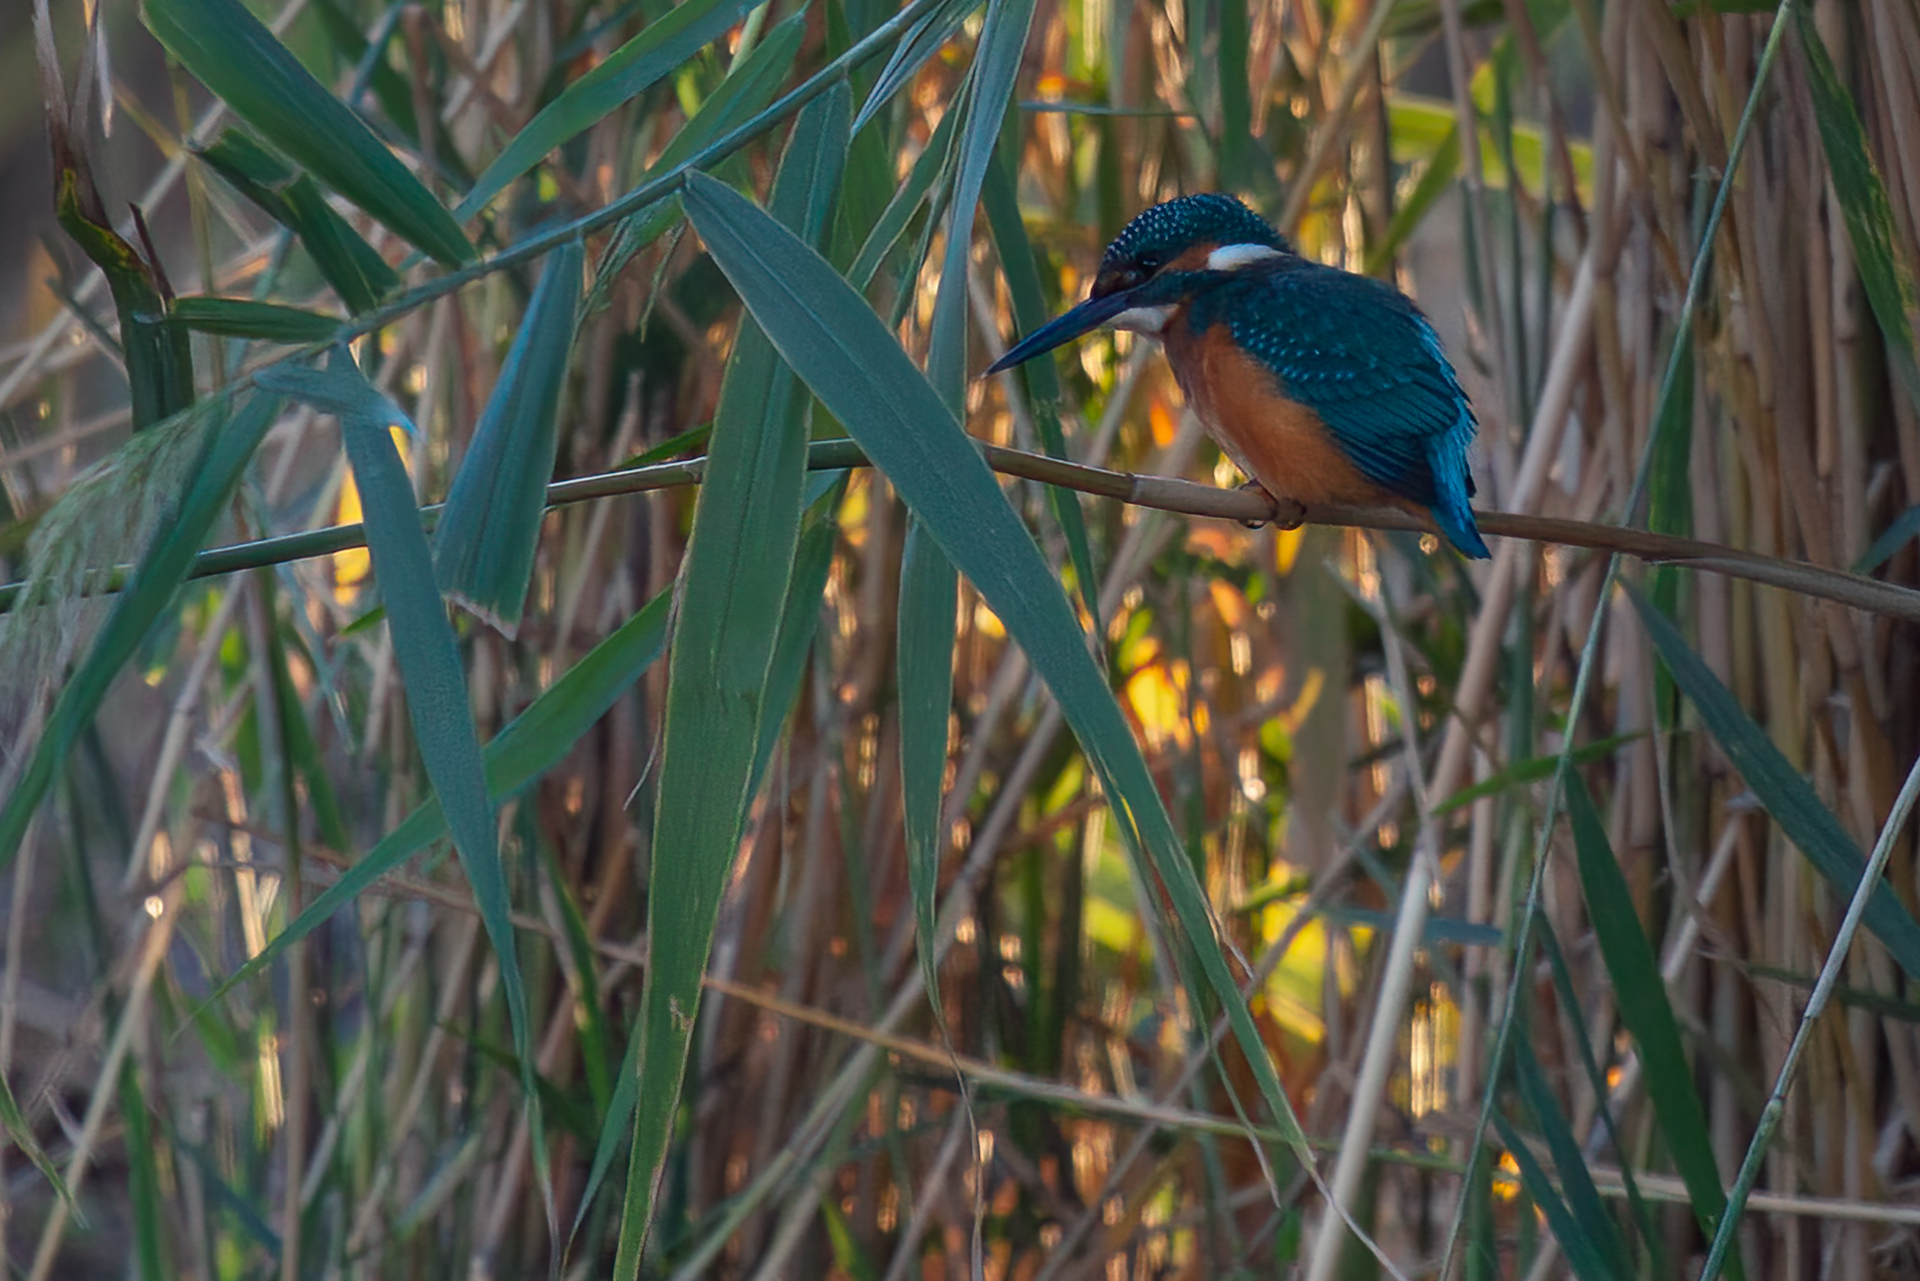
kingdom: Animalia
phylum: Chordata
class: Aves
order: Coraciiformes
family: Alcedinidae
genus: Alcedo
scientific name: Alcedo atthis
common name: Common kingfisher
